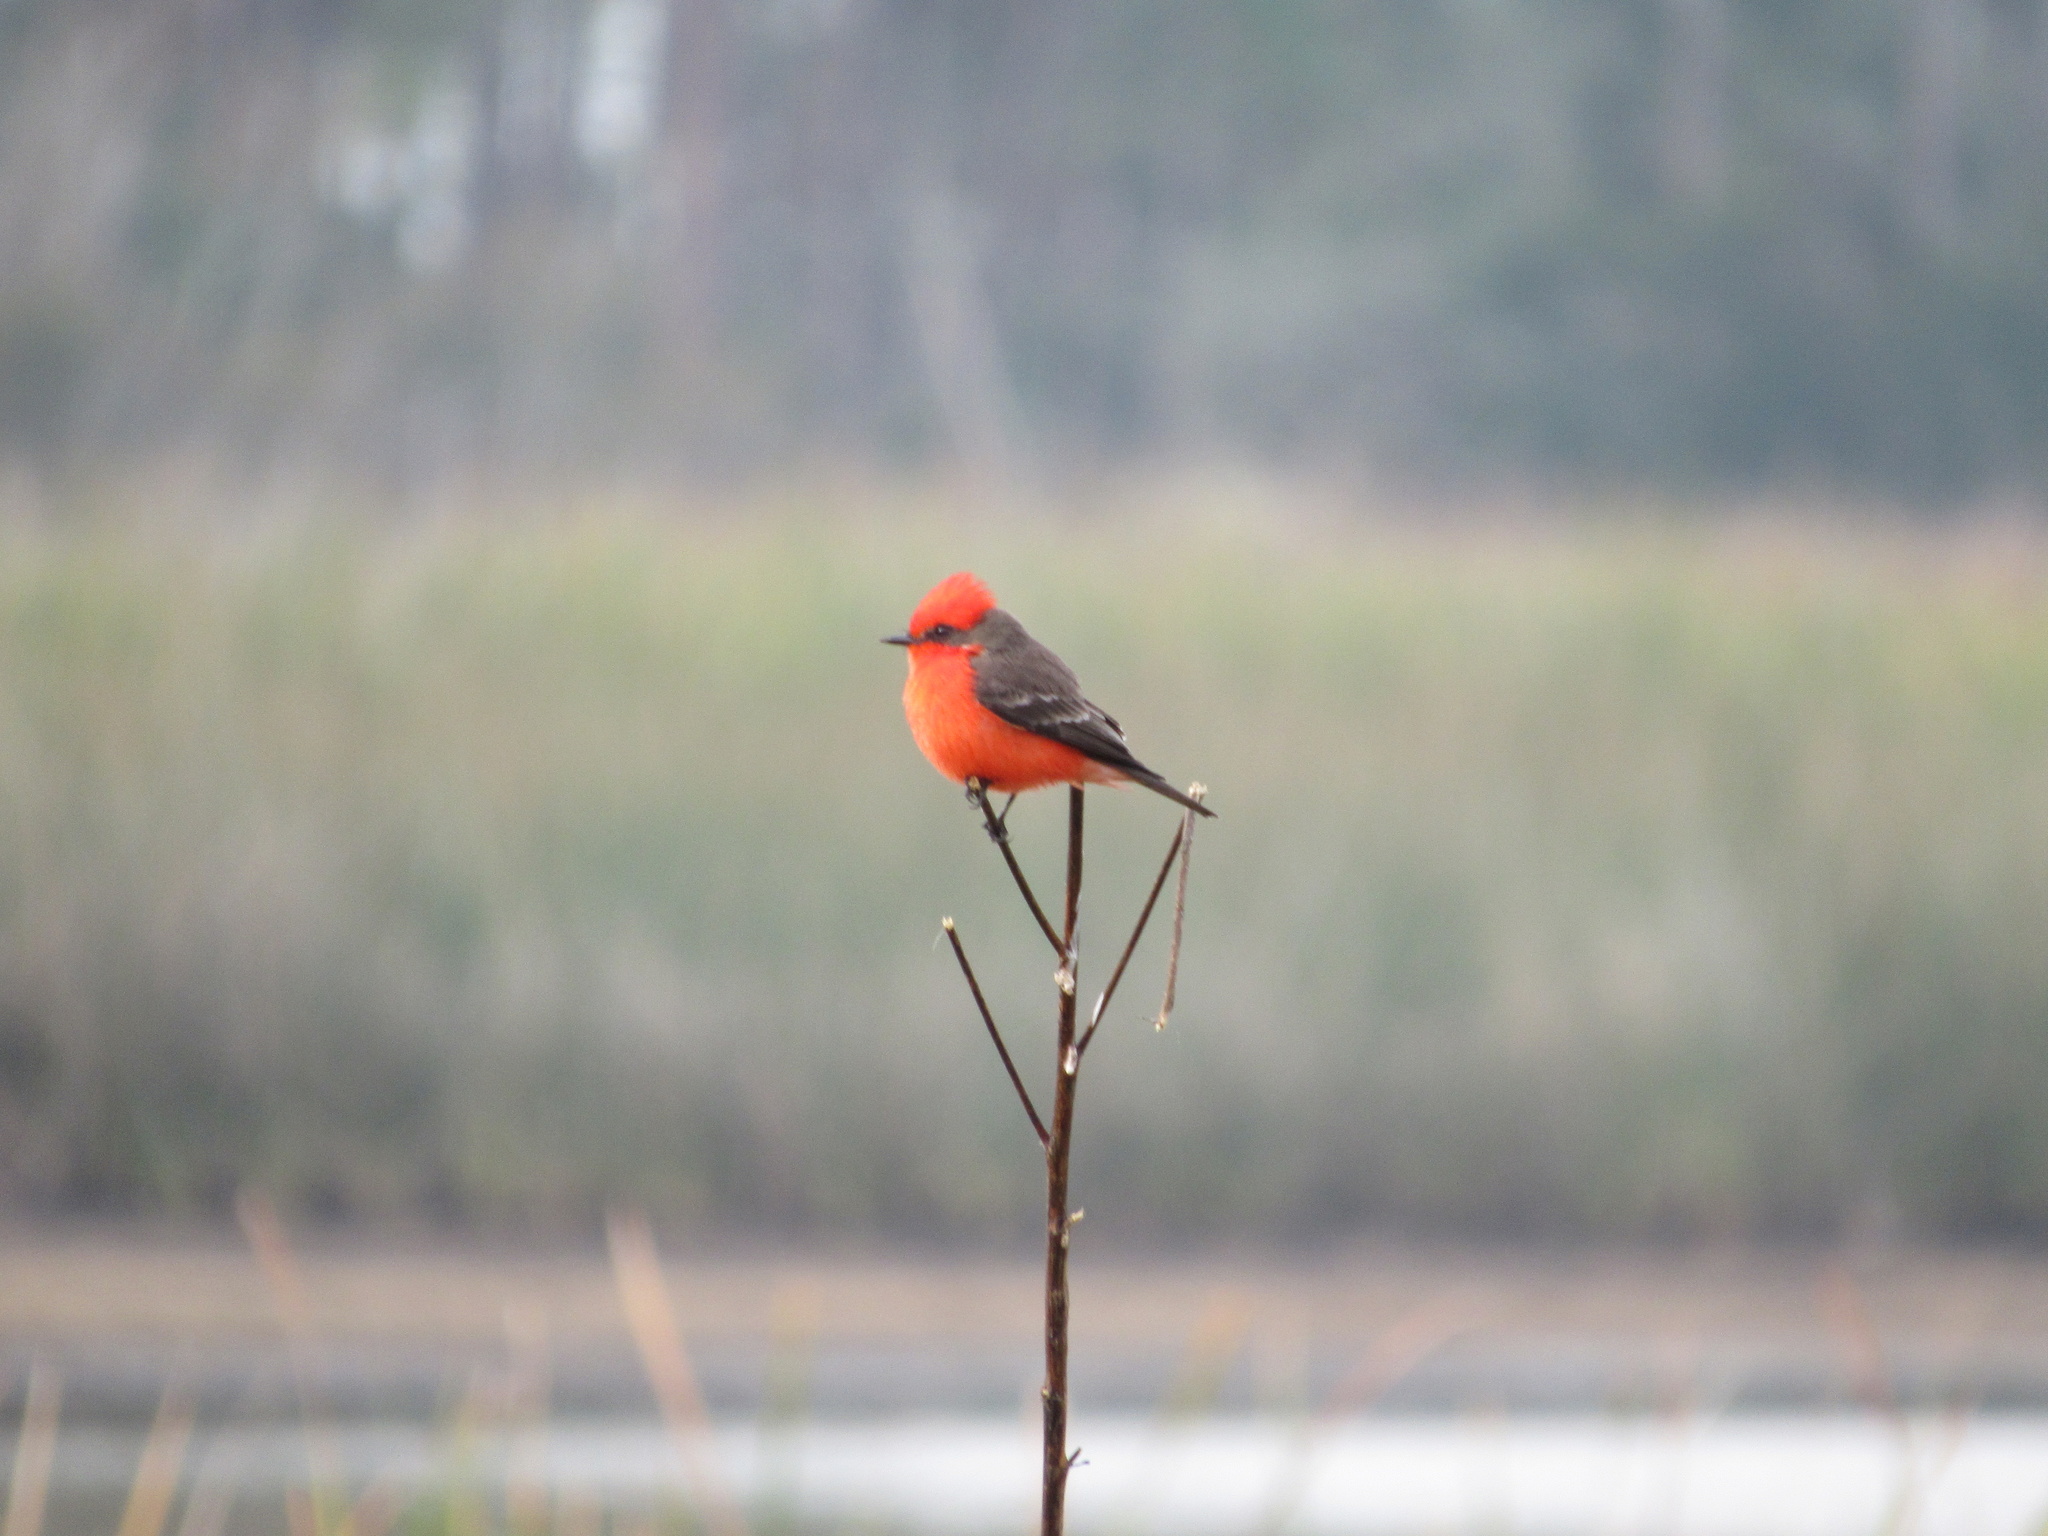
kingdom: Animalia
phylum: Chordata
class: Aves
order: Passeriformes
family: Tyrannidae
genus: Pyrocephalus
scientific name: Pyrocephalus rubinus
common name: Vermilion flycatcher
